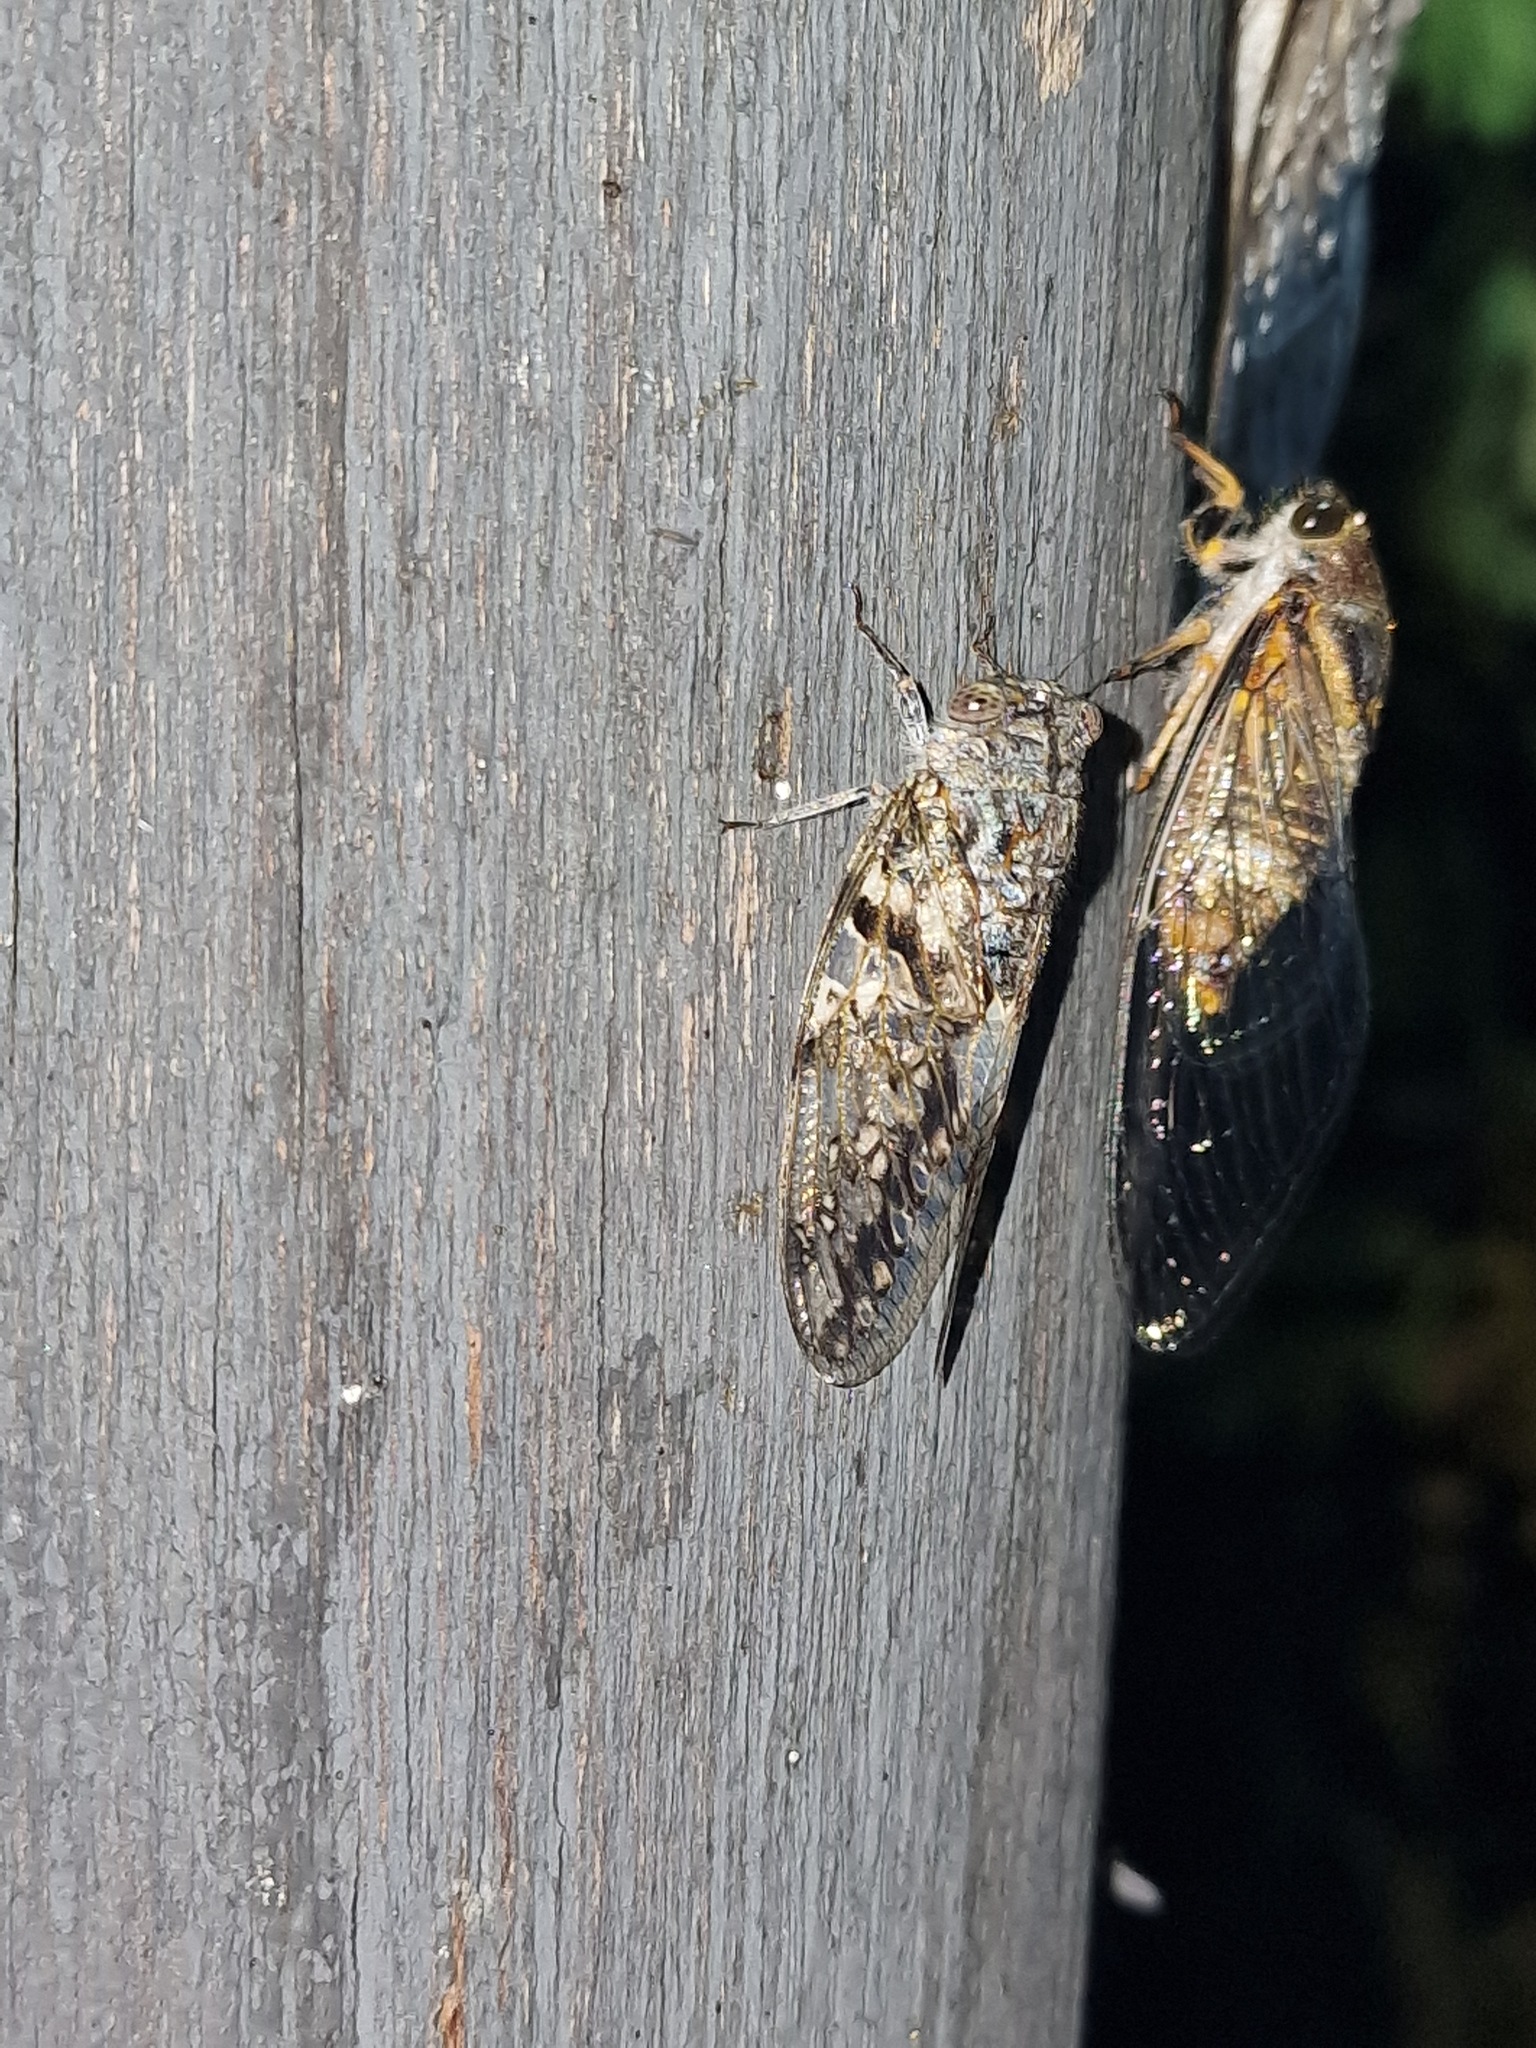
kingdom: Animalia
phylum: Arthropoda
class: Insecta
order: Hemiptera
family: Cicadidae
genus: Oxypleura
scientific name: Oxypleura quadraticollis
